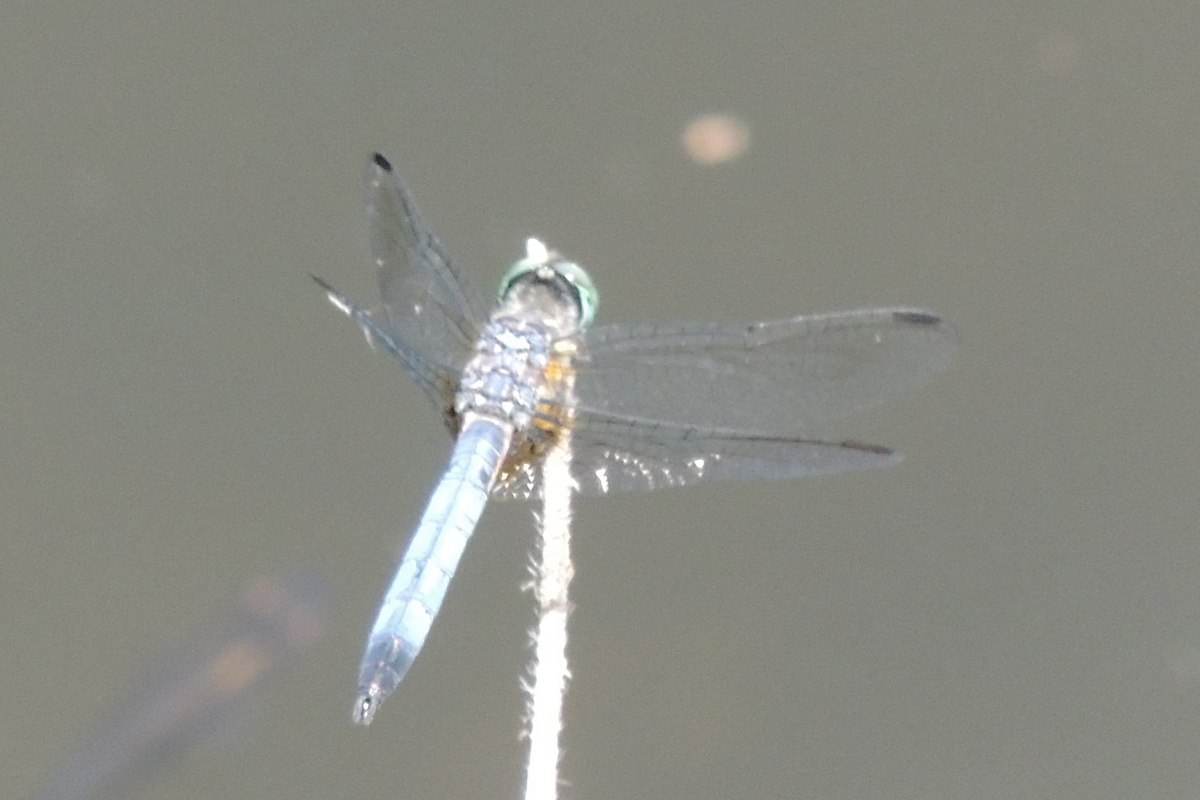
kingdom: Animalia
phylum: Arthropoda
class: Insecta
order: Odonata
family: Libellulidae
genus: Pachydiplax
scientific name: Pachydiplax longipennis
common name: Blue dasher
